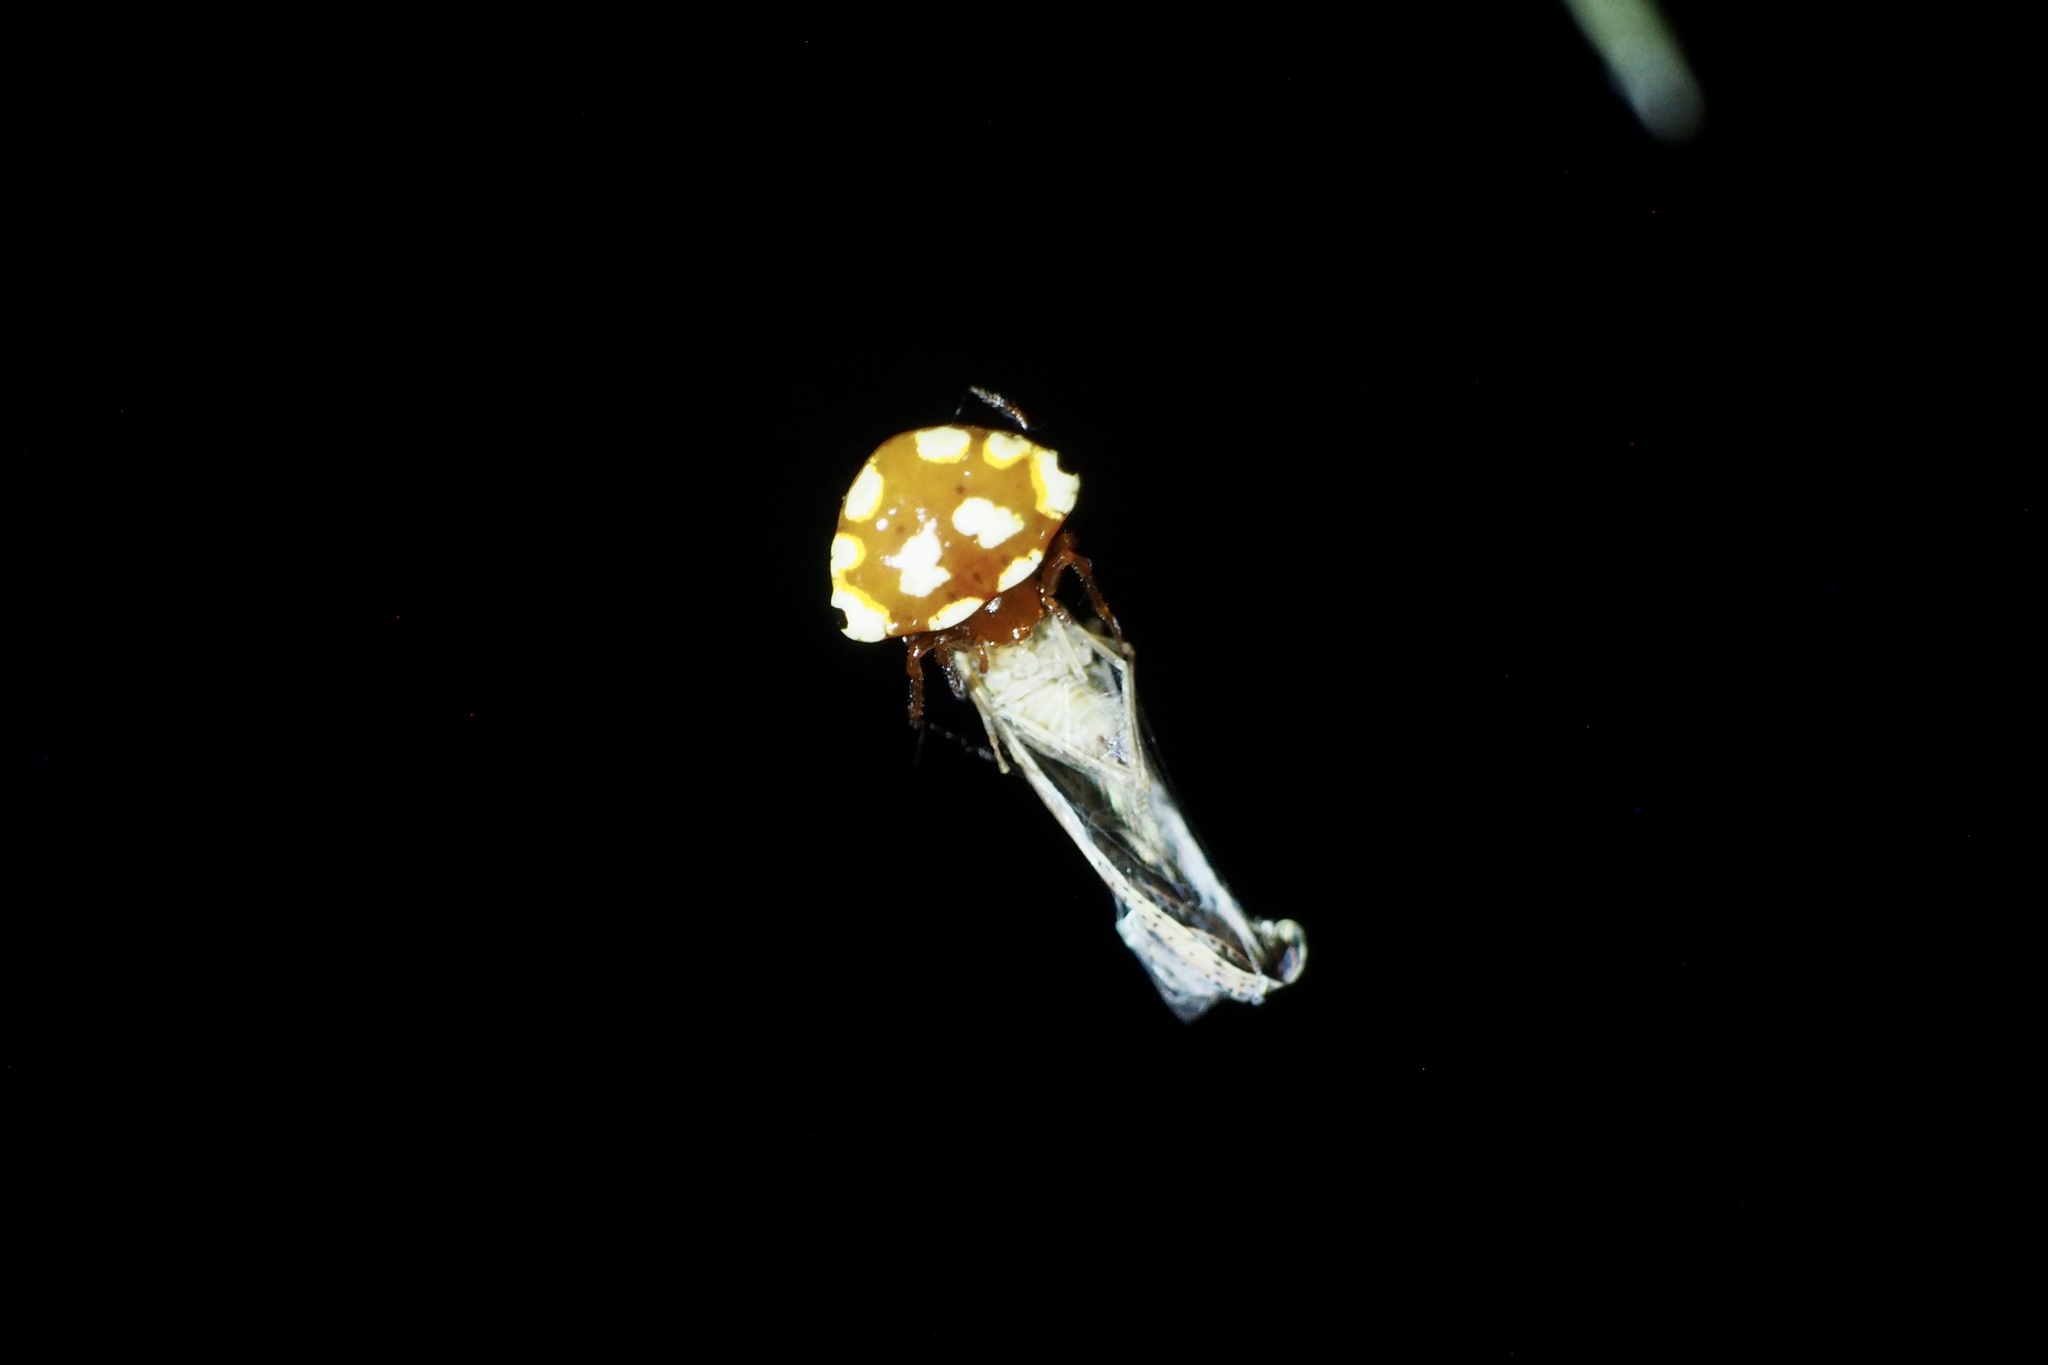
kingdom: Animalia
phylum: Arthropoda
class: Arachnida
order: Araneae
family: Araneidae
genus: Cyrtarachne
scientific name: Cyrtarachne yunoharuensis
